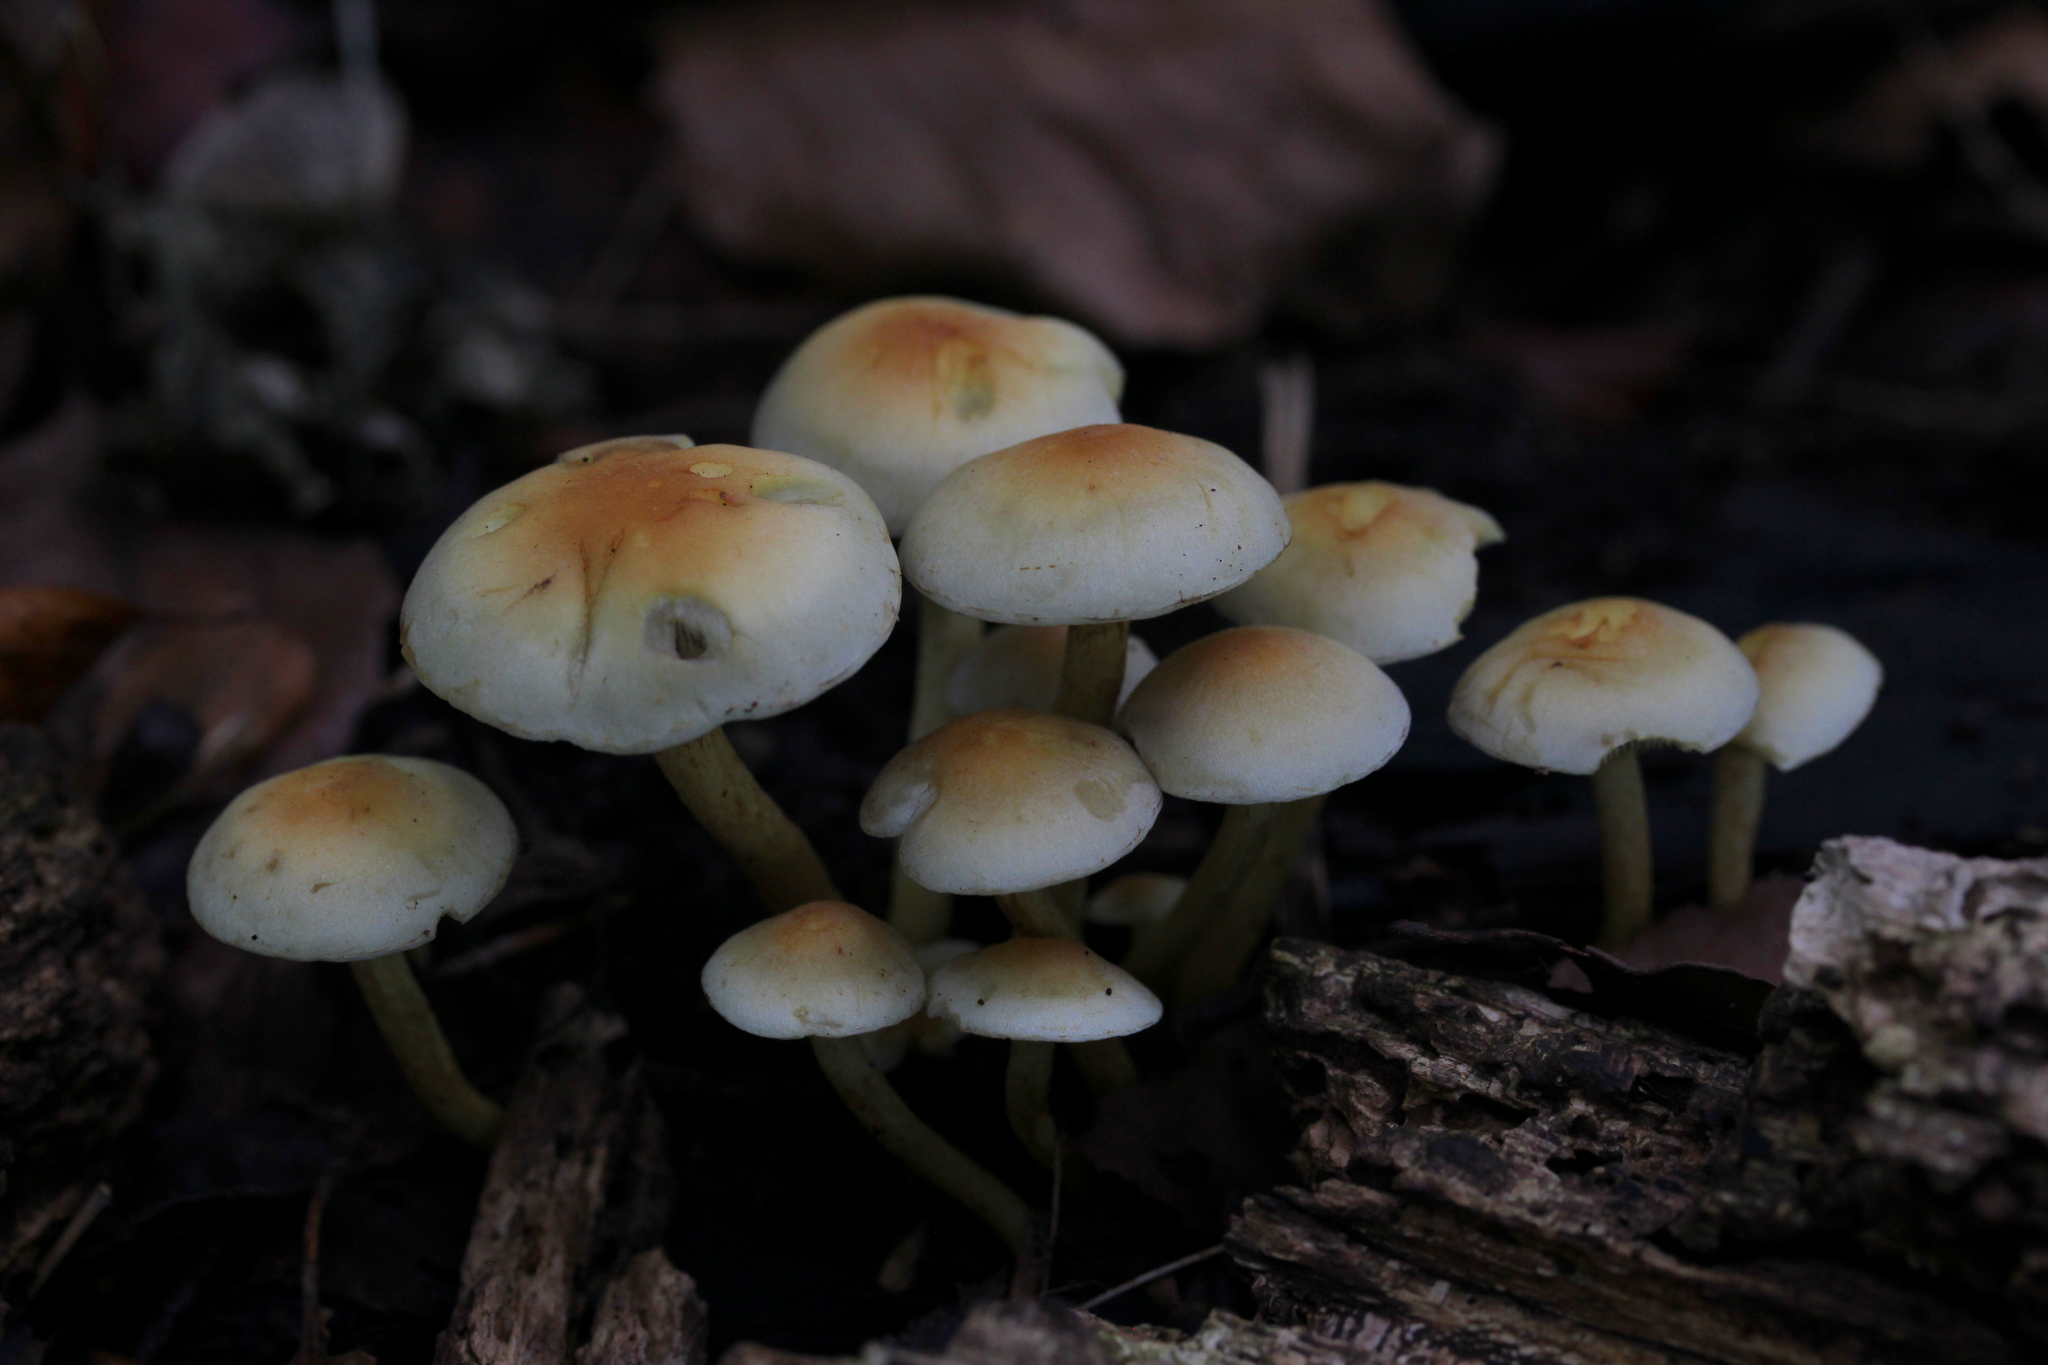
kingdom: Fungi
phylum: Basidiomycota
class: Agaricomycetes
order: Agaricales
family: Strophariaceae
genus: Hypholoma
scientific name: Hypholoma
